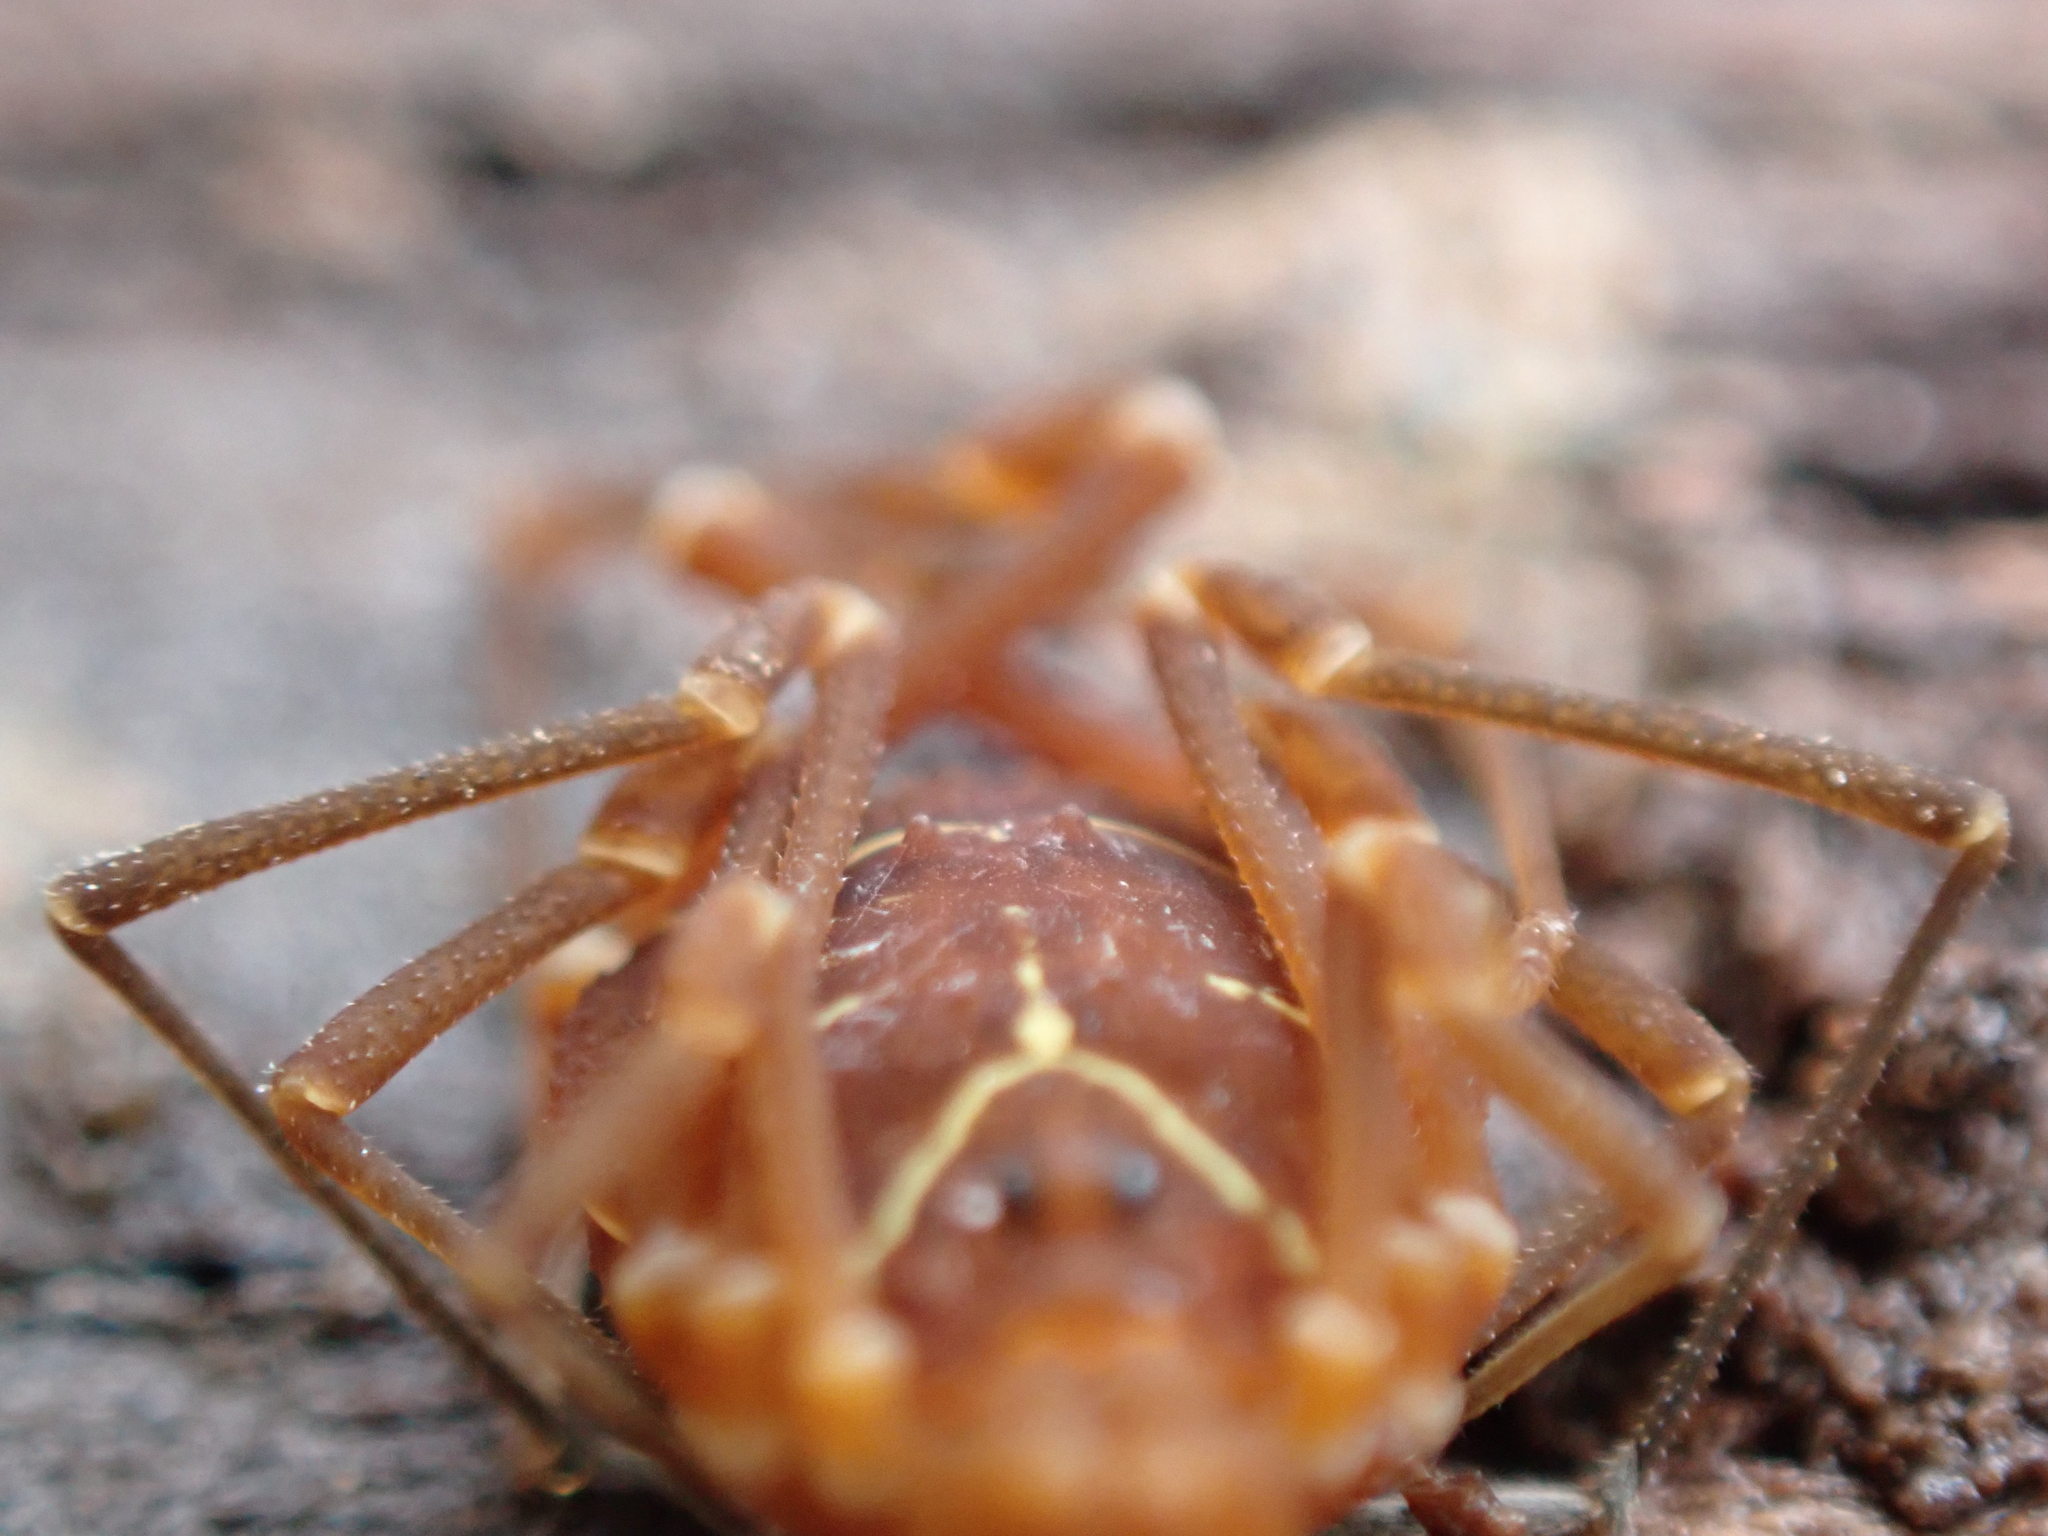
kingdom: Animalia
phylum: Arthropoda
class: Arachnida
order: Opiliones
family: Cosmetidae
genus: Libitioides
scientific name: Libitioides sayi
